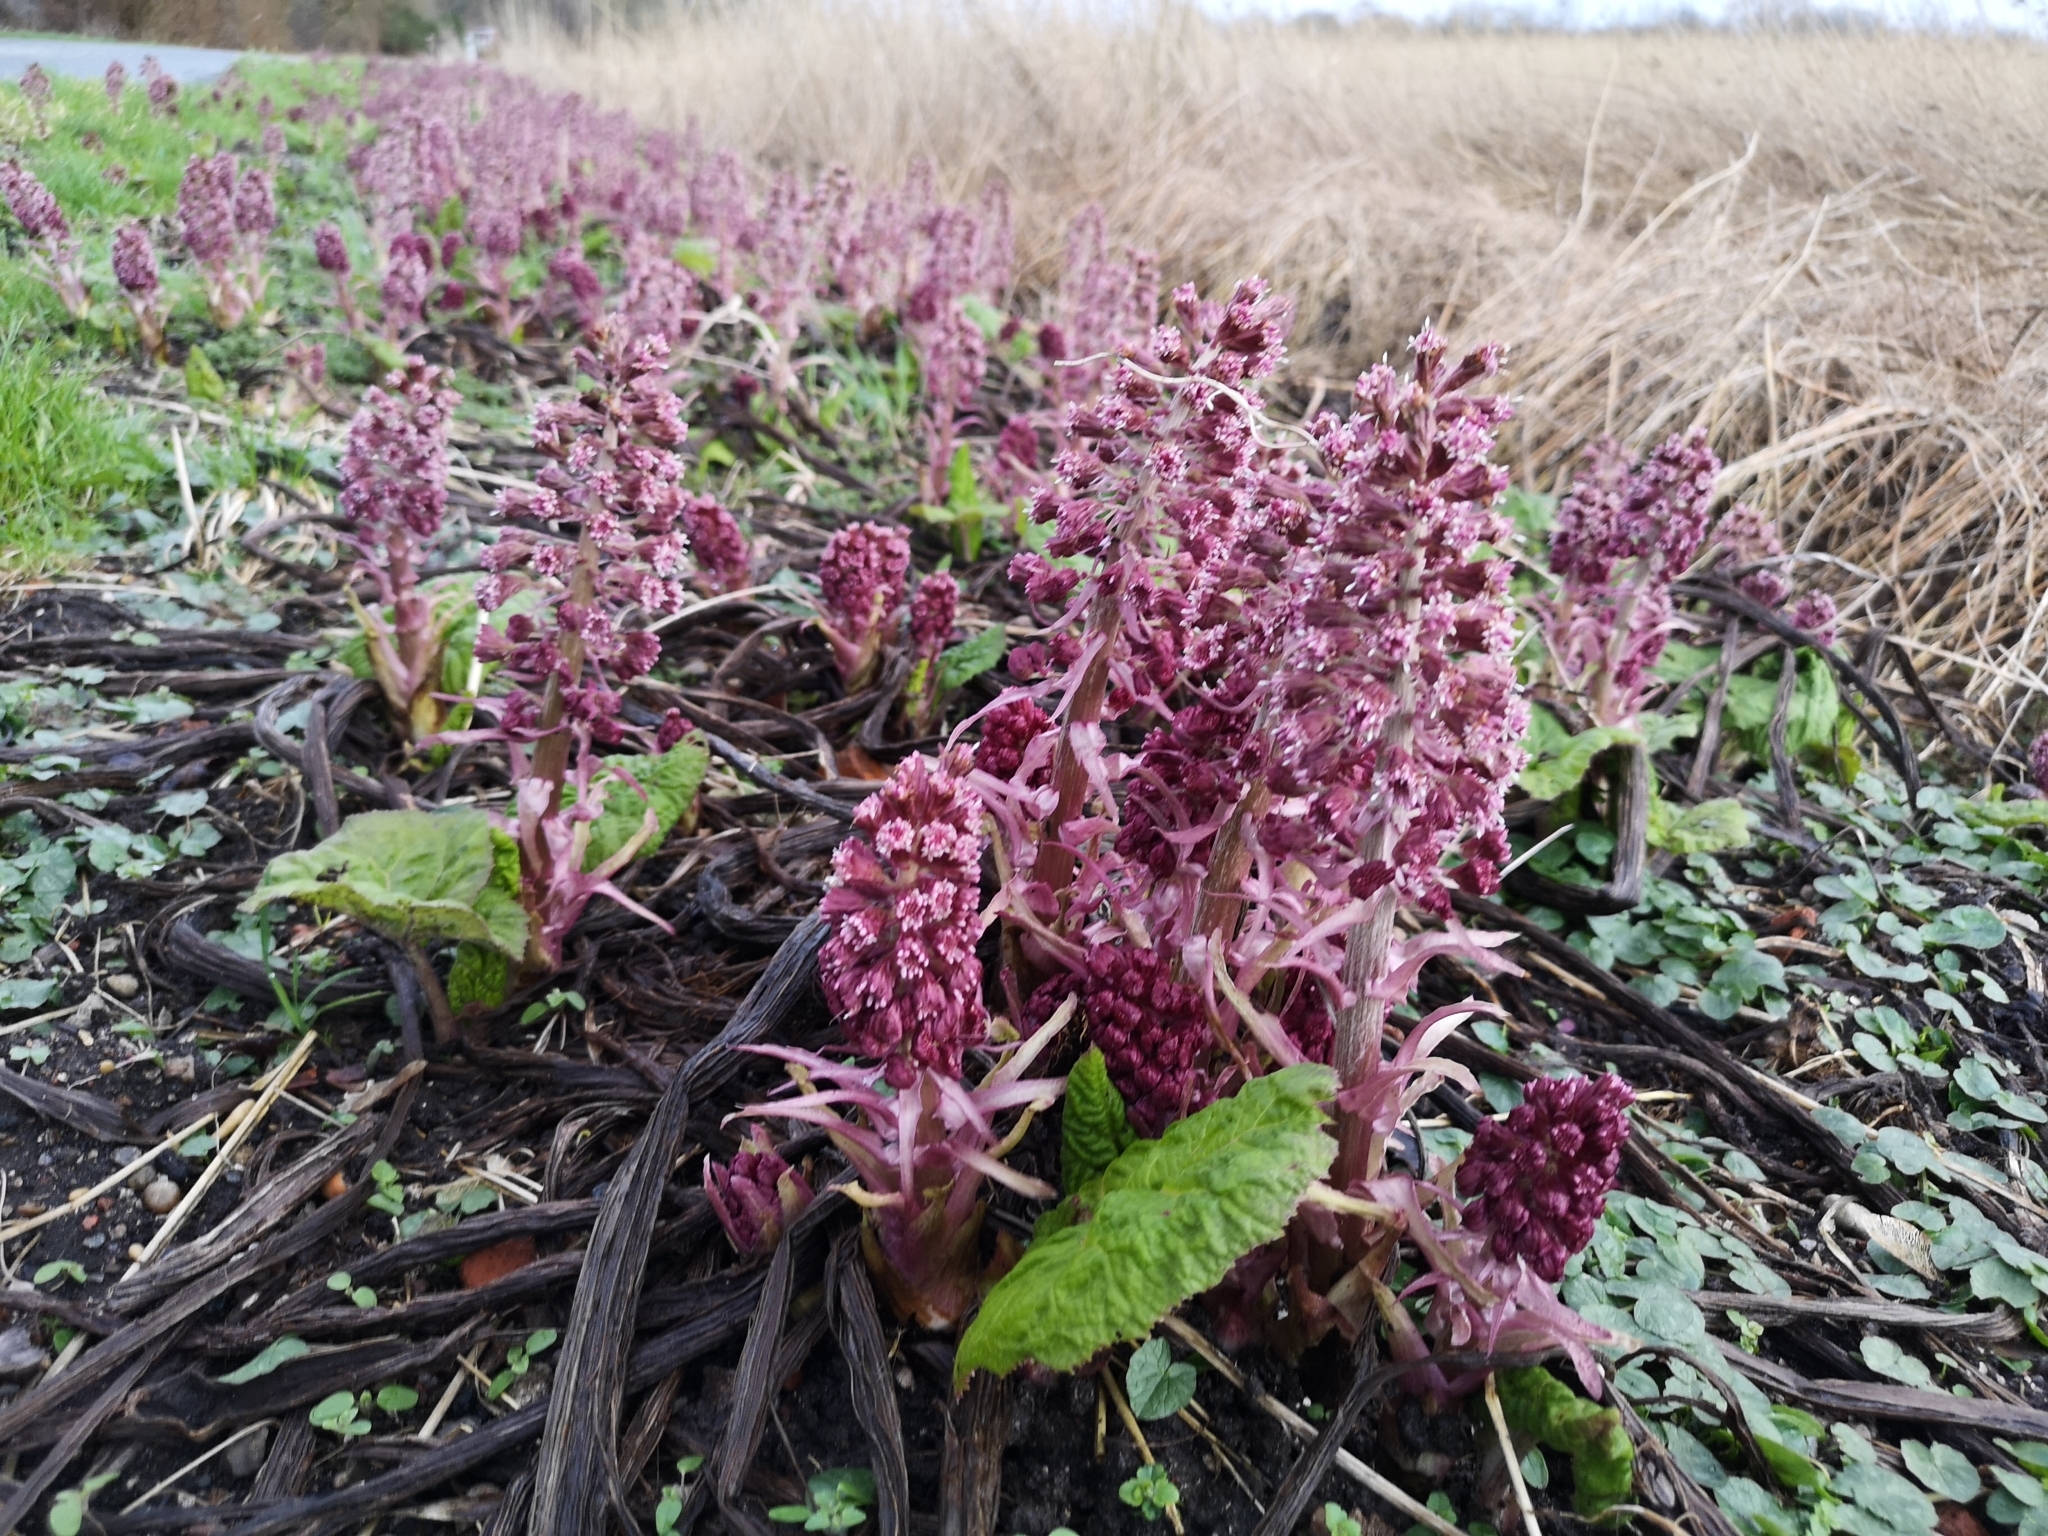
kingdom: Plantae
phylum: Tracheophyta
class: Magnoliopsida
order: Asterales
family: Asteraceae
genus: Petasites
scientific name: Petasites hybridus
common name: Butterbur
